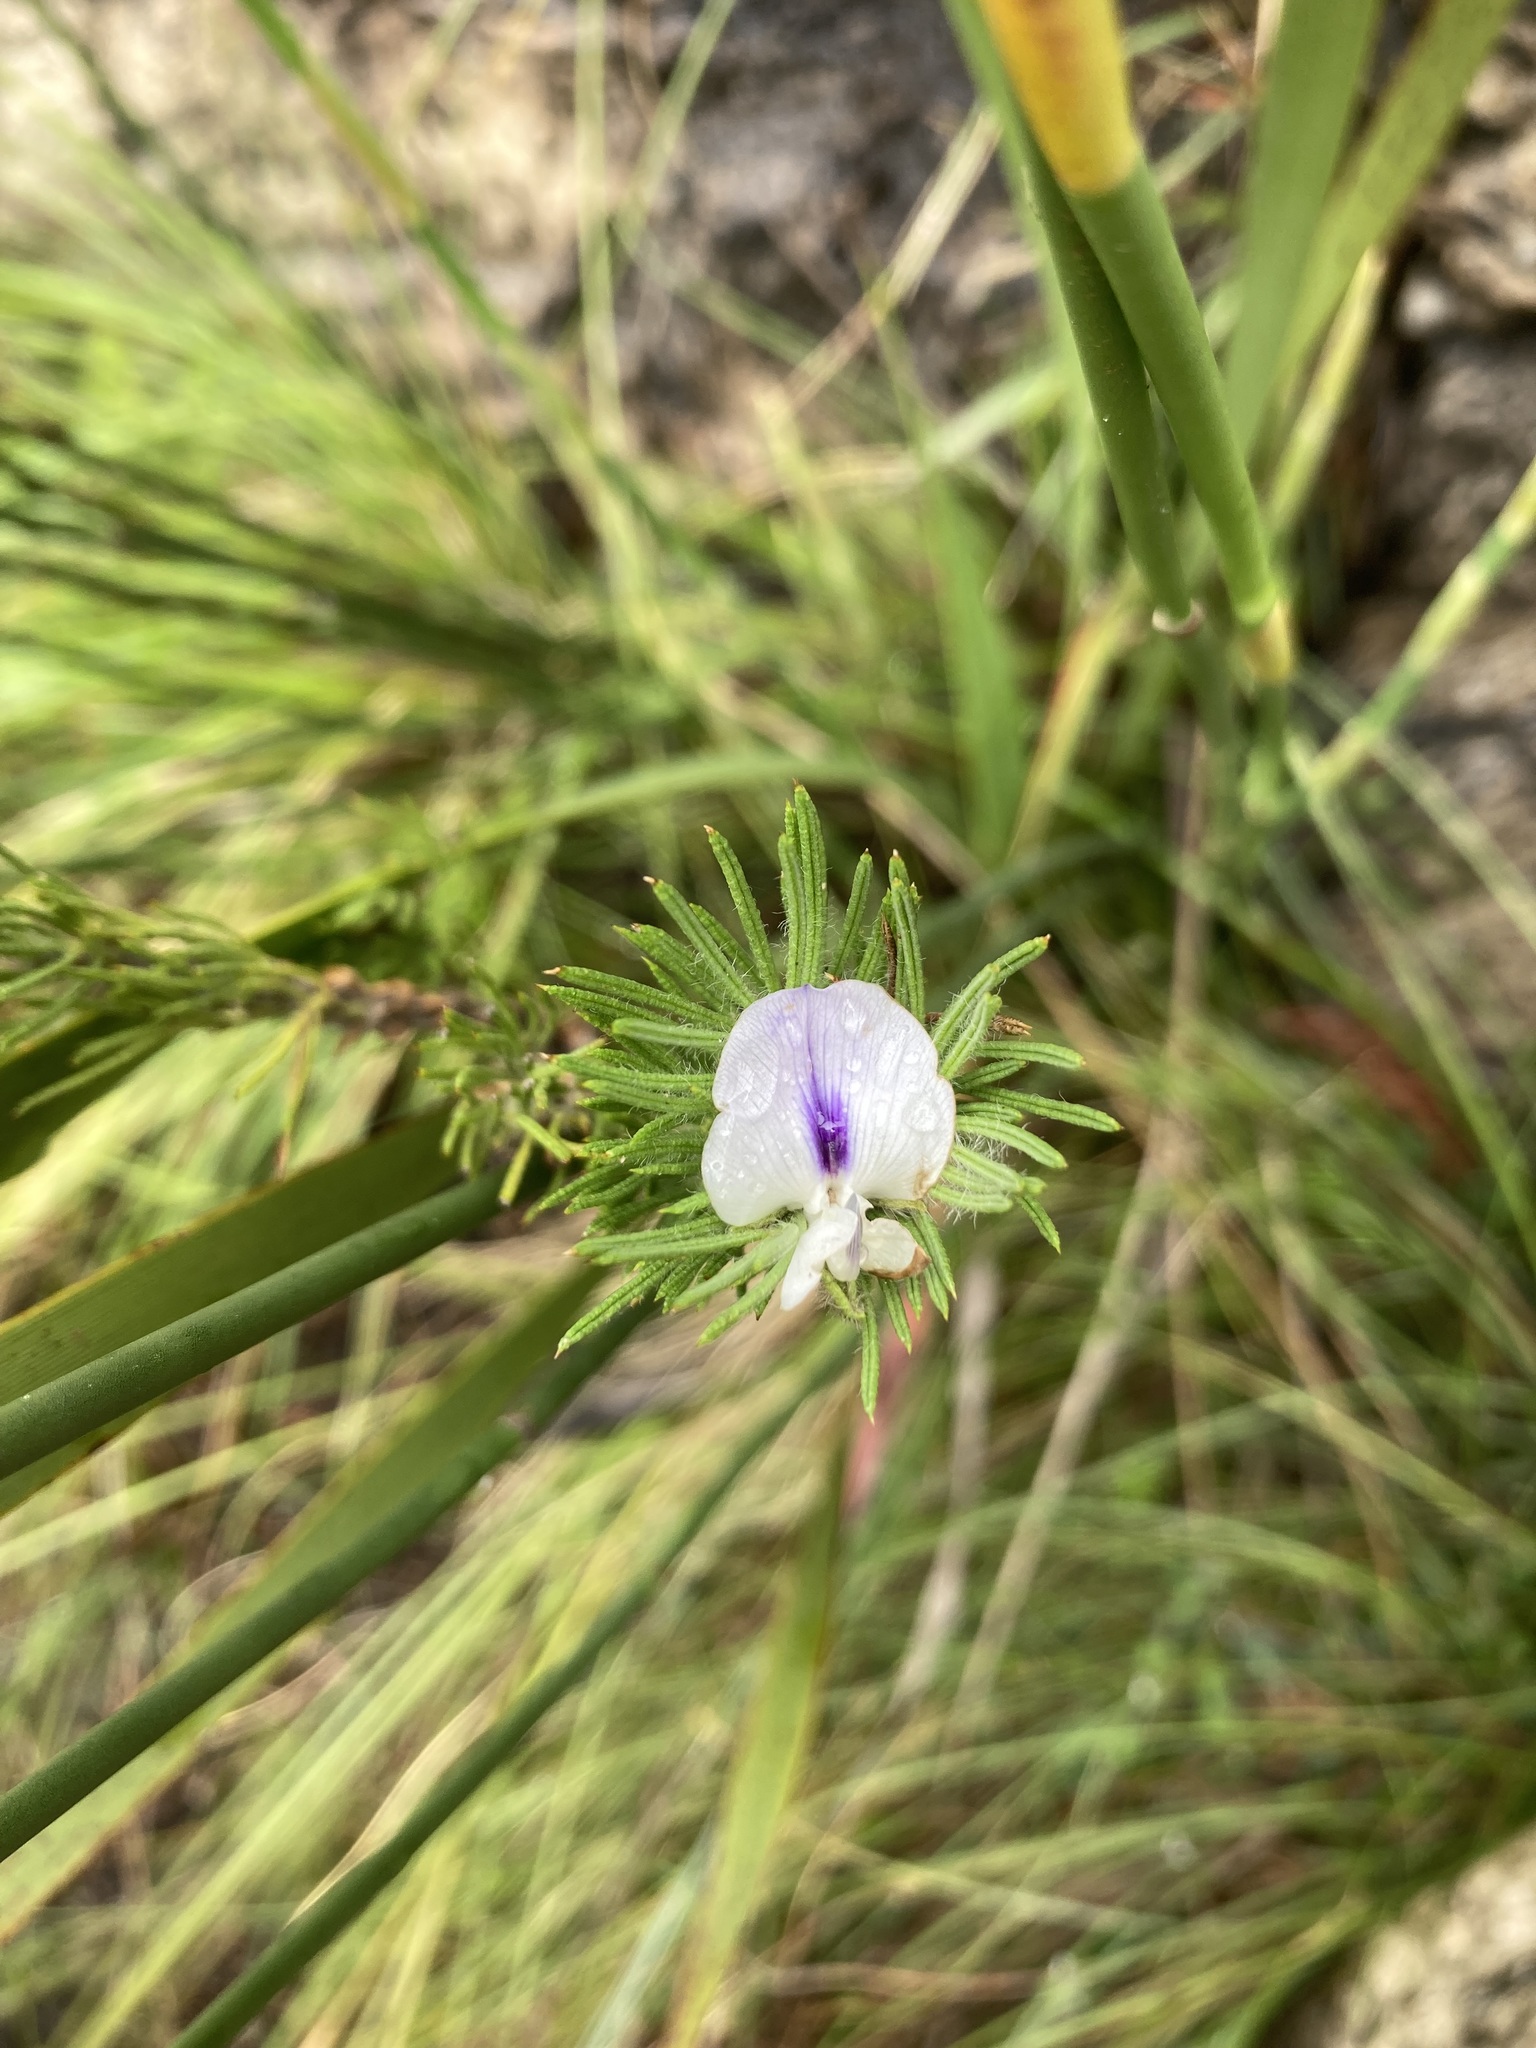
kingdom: Plantae
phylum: Tracheophyta
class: Magnoliopsida
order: Fabales
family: Fabaceae
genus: Psoralea
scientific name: Psoralea floccosa
